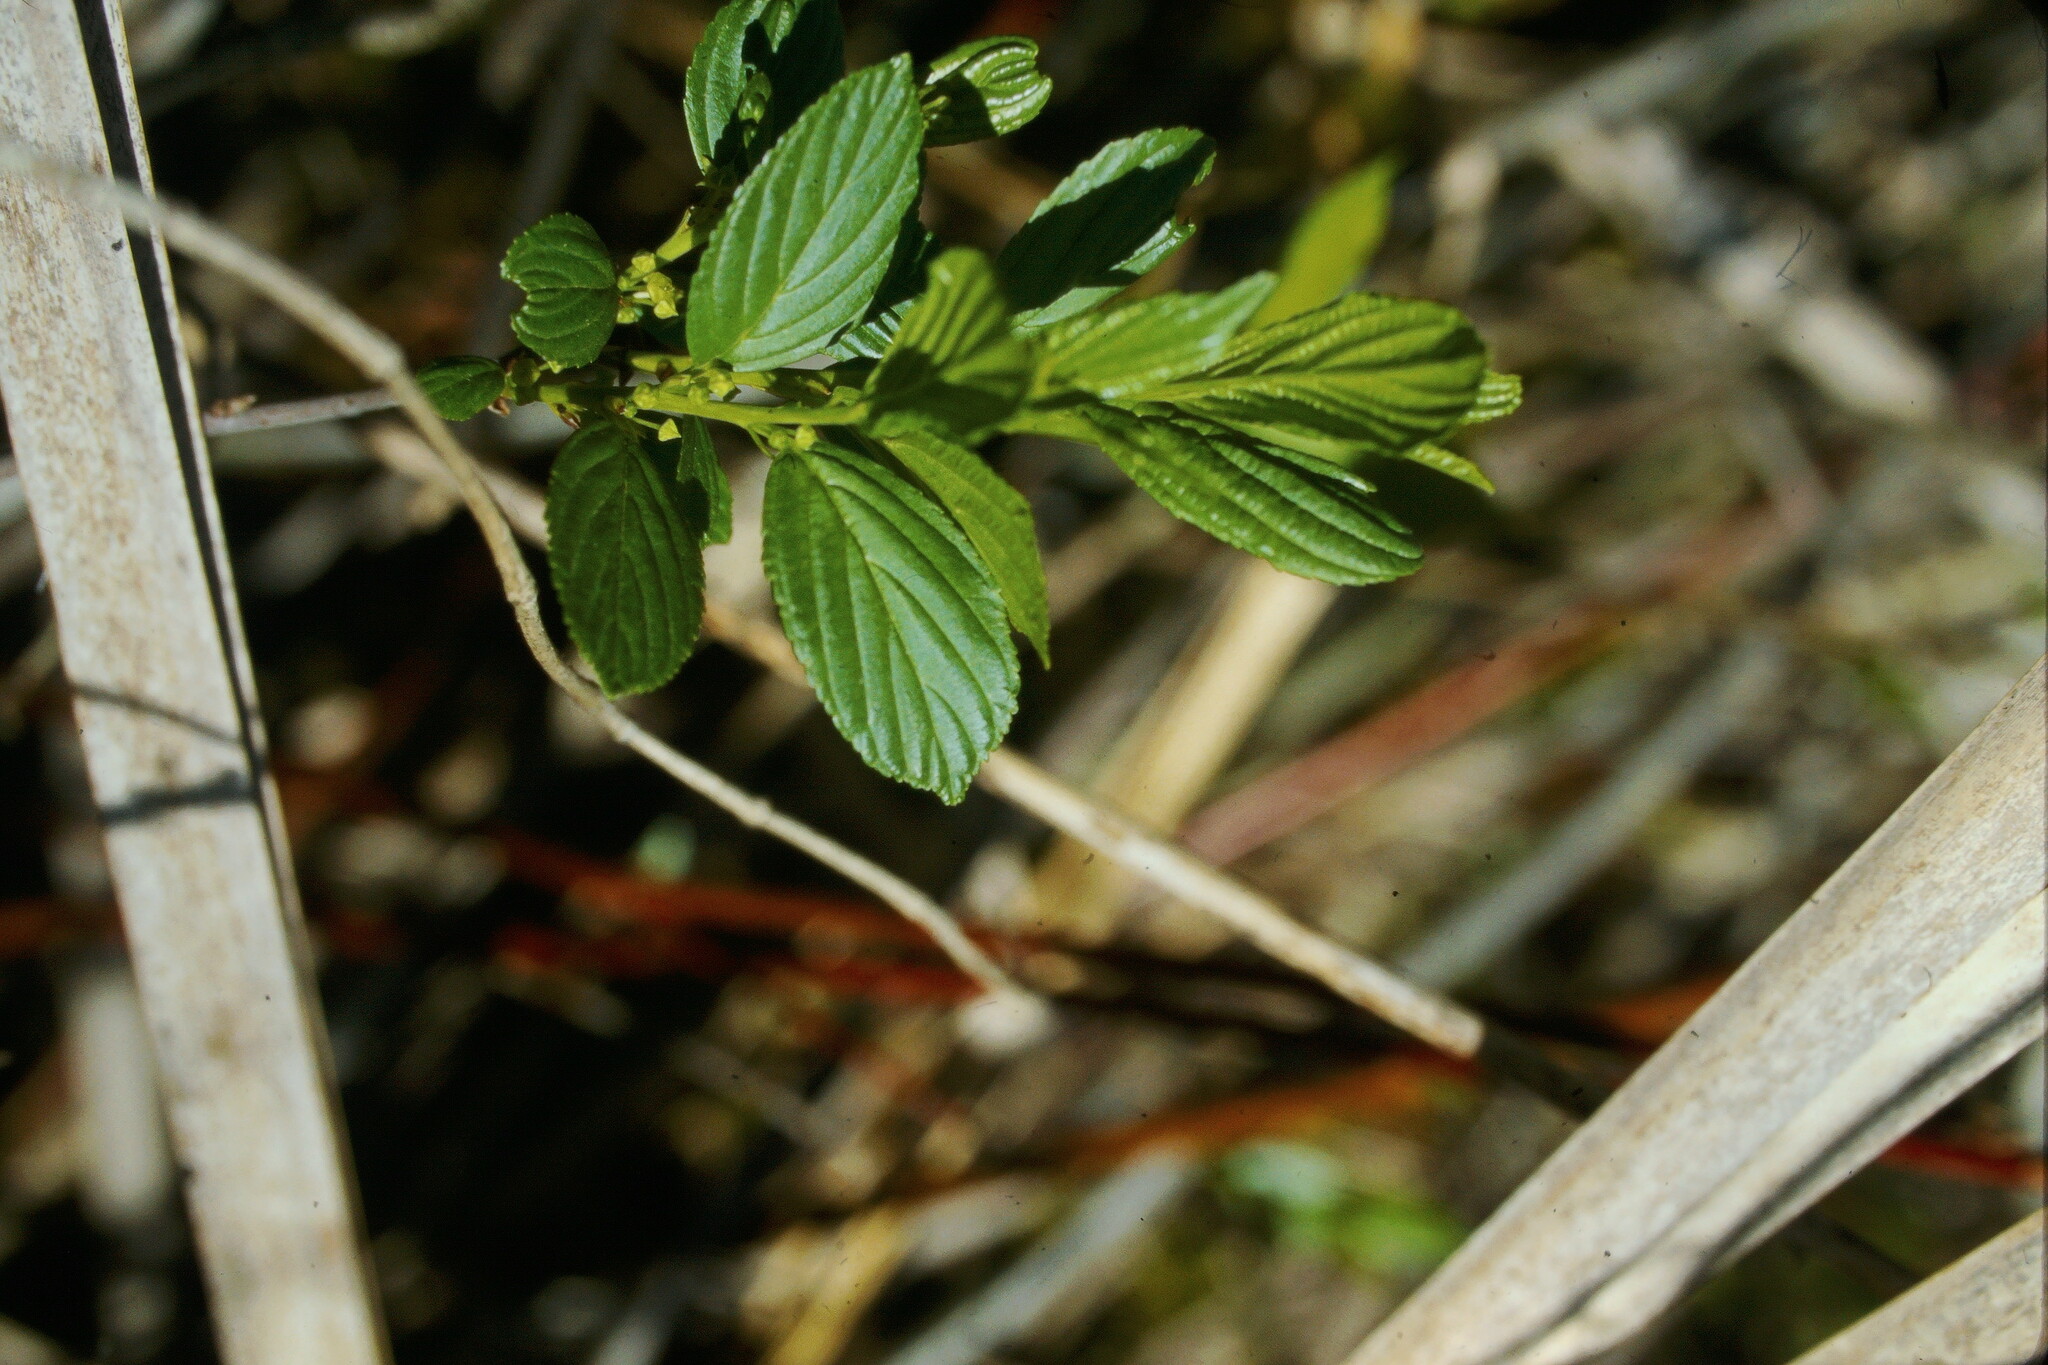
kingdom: Plantae
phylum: Tracheophyta
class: Magnoliopsida
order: Rosales
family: Rhamnaceae
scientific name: Rhamnaceae
